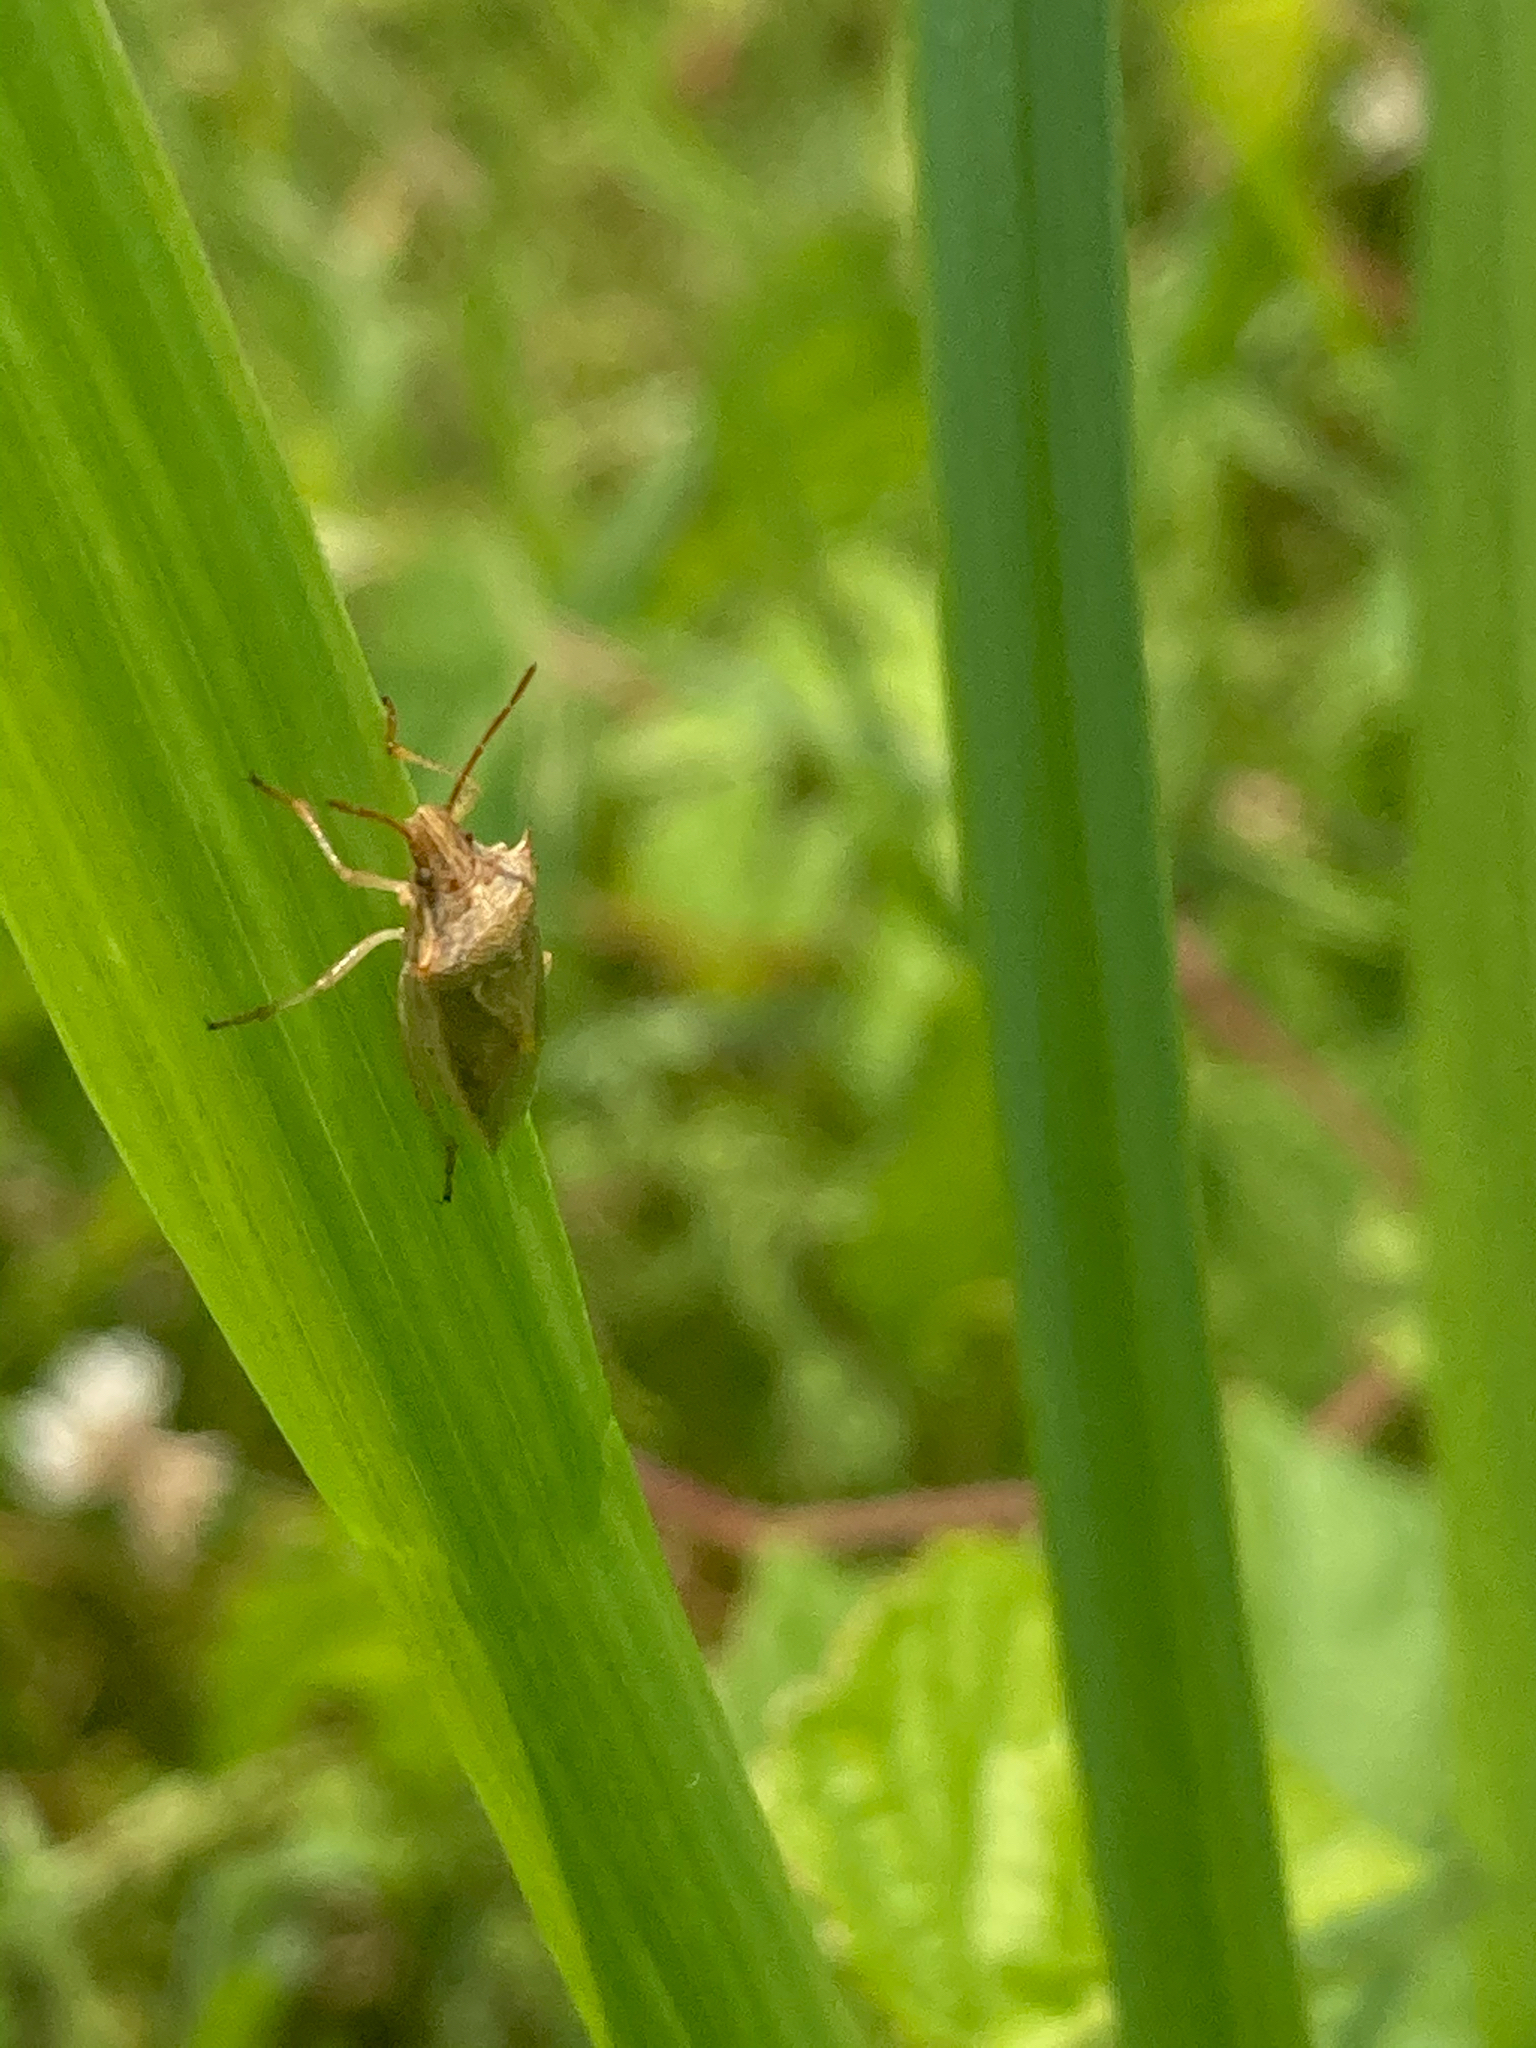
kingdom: Animalia
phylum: Arthropoda
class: Insecta
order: Hemiptera
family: Pentatomidae
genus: Oebalus
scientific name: Oebalus pugnax
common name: Rice stink bug
